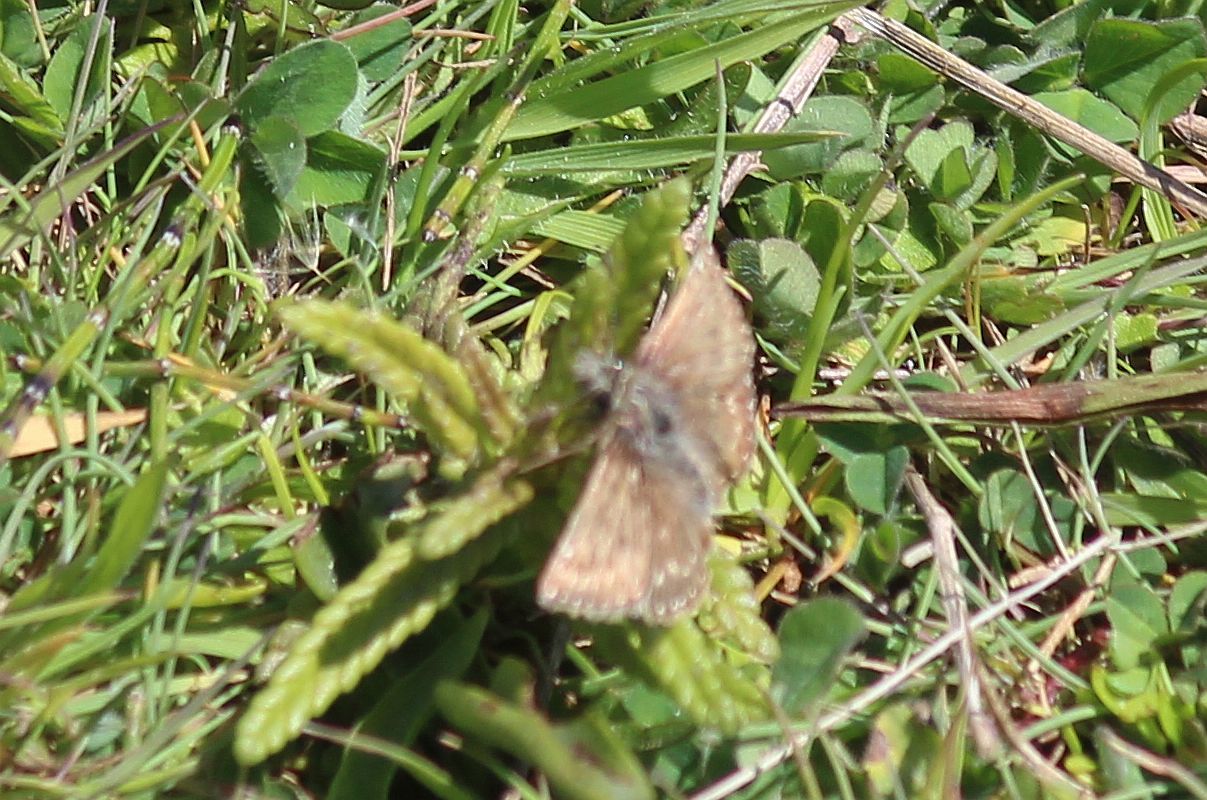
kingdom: Animalia
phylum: Arthropoda
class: Insecta
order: Lepidoptera
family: Hesperiidae
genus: Erynnis
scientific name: Erynnis tages
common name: Dingy skipper
